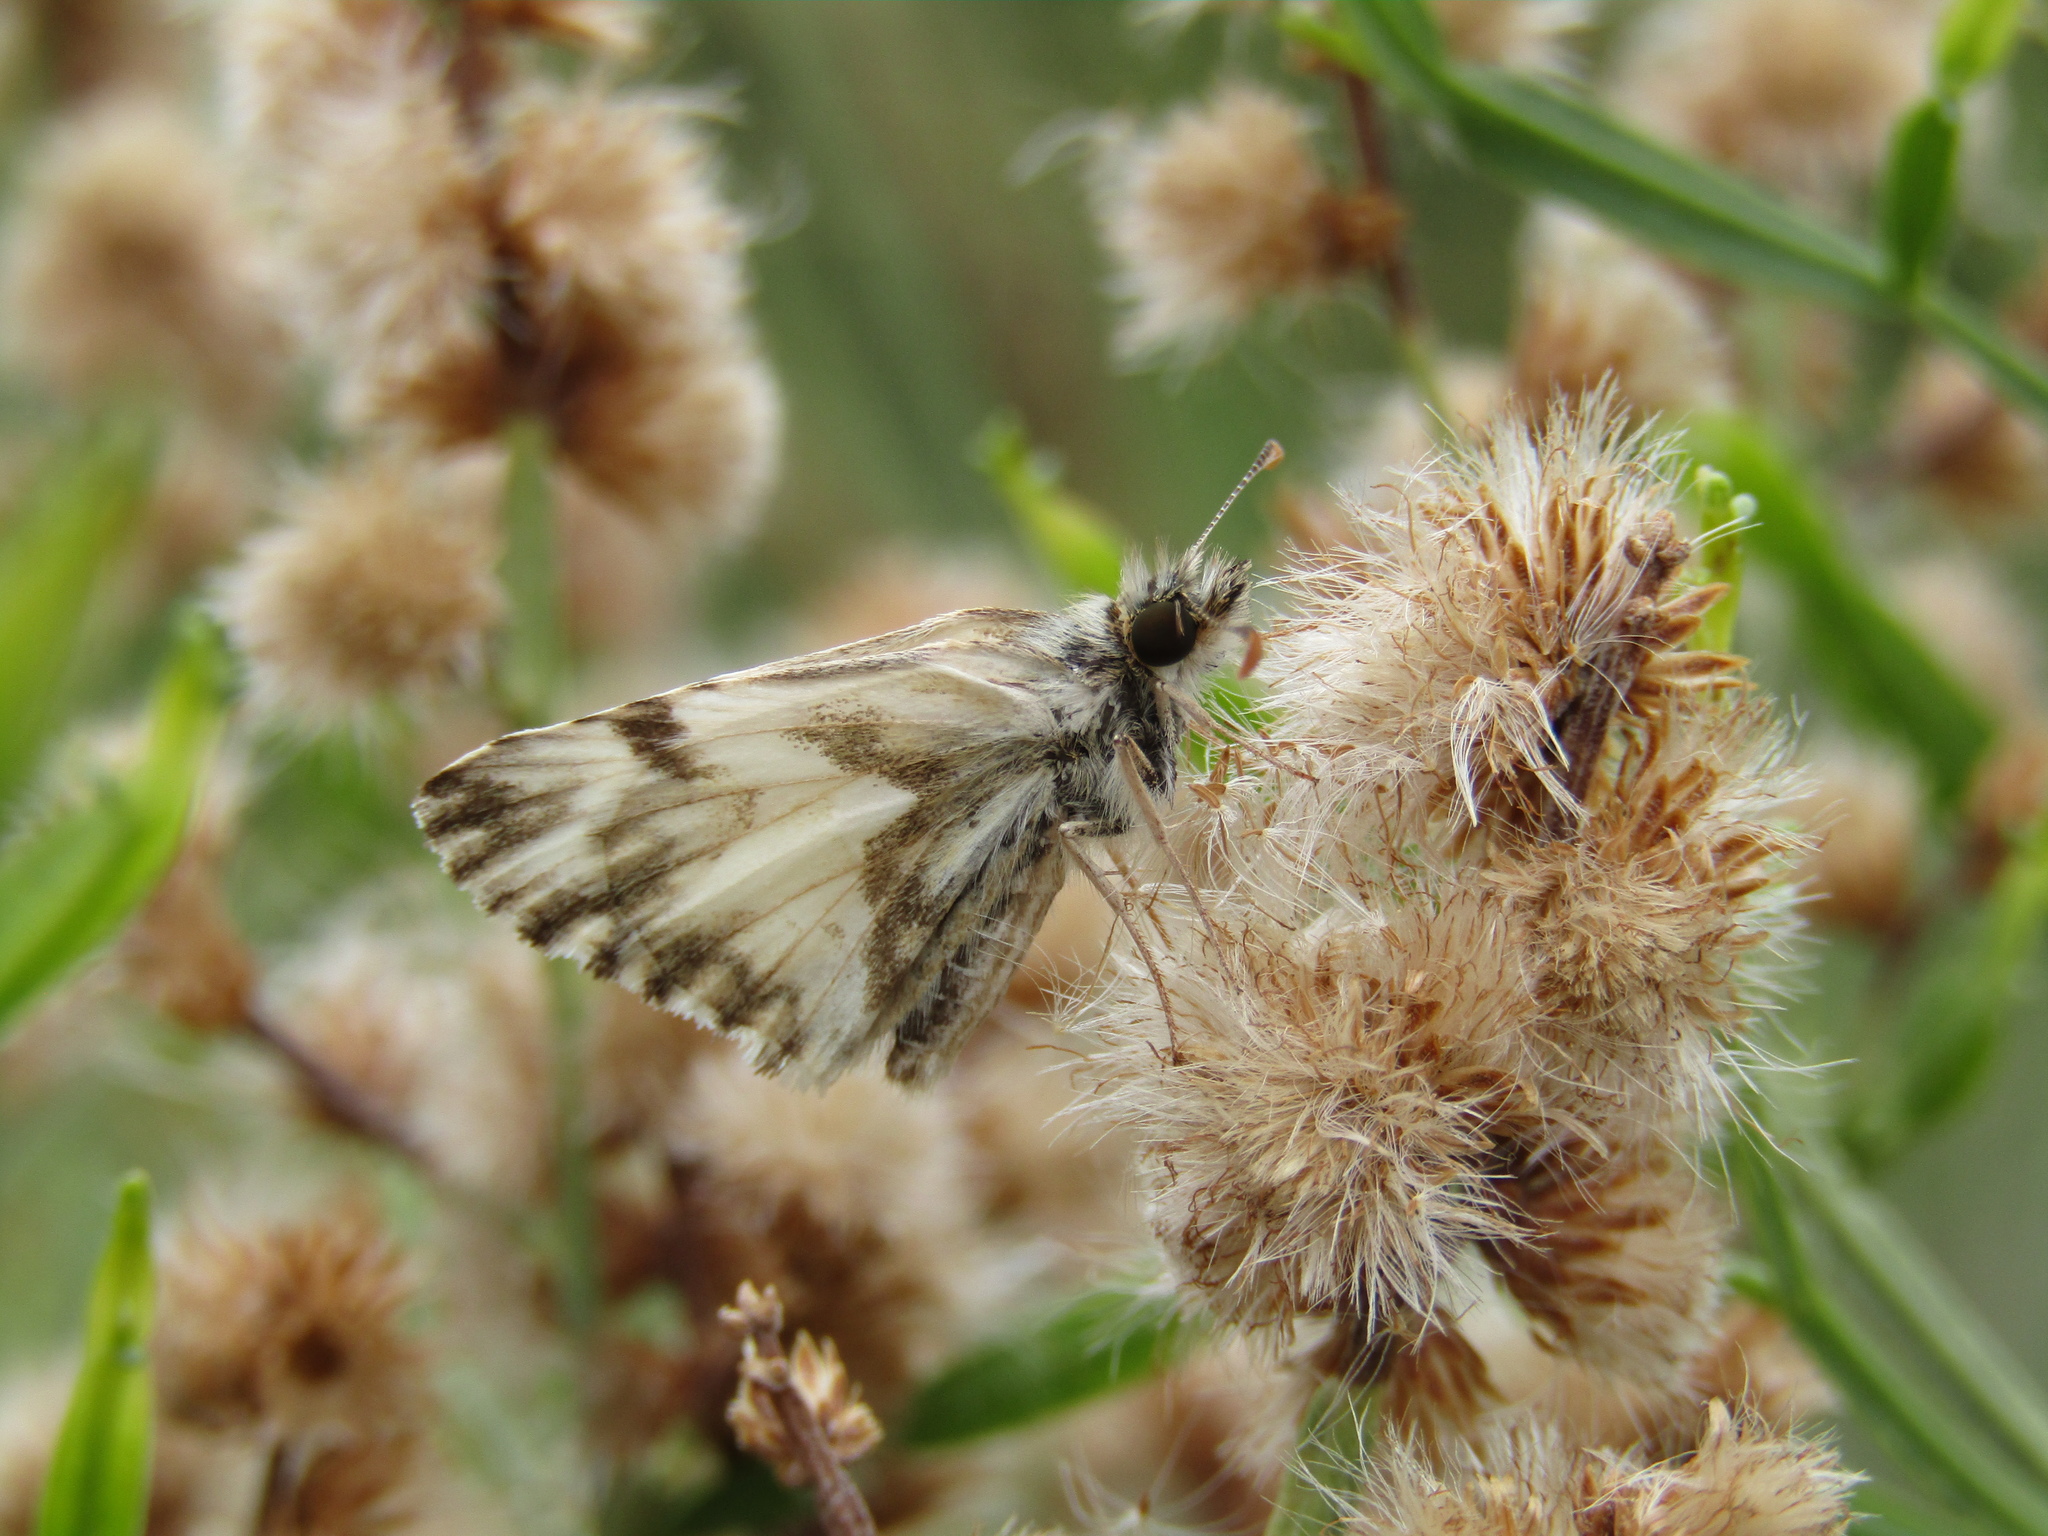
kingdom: Animalia
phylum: Arthropoda
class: Insecta
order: Lepidoptera
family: Hesperiidae
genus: Heliopetes
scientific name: Heliopetes omrina
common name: Stained white-skipper
